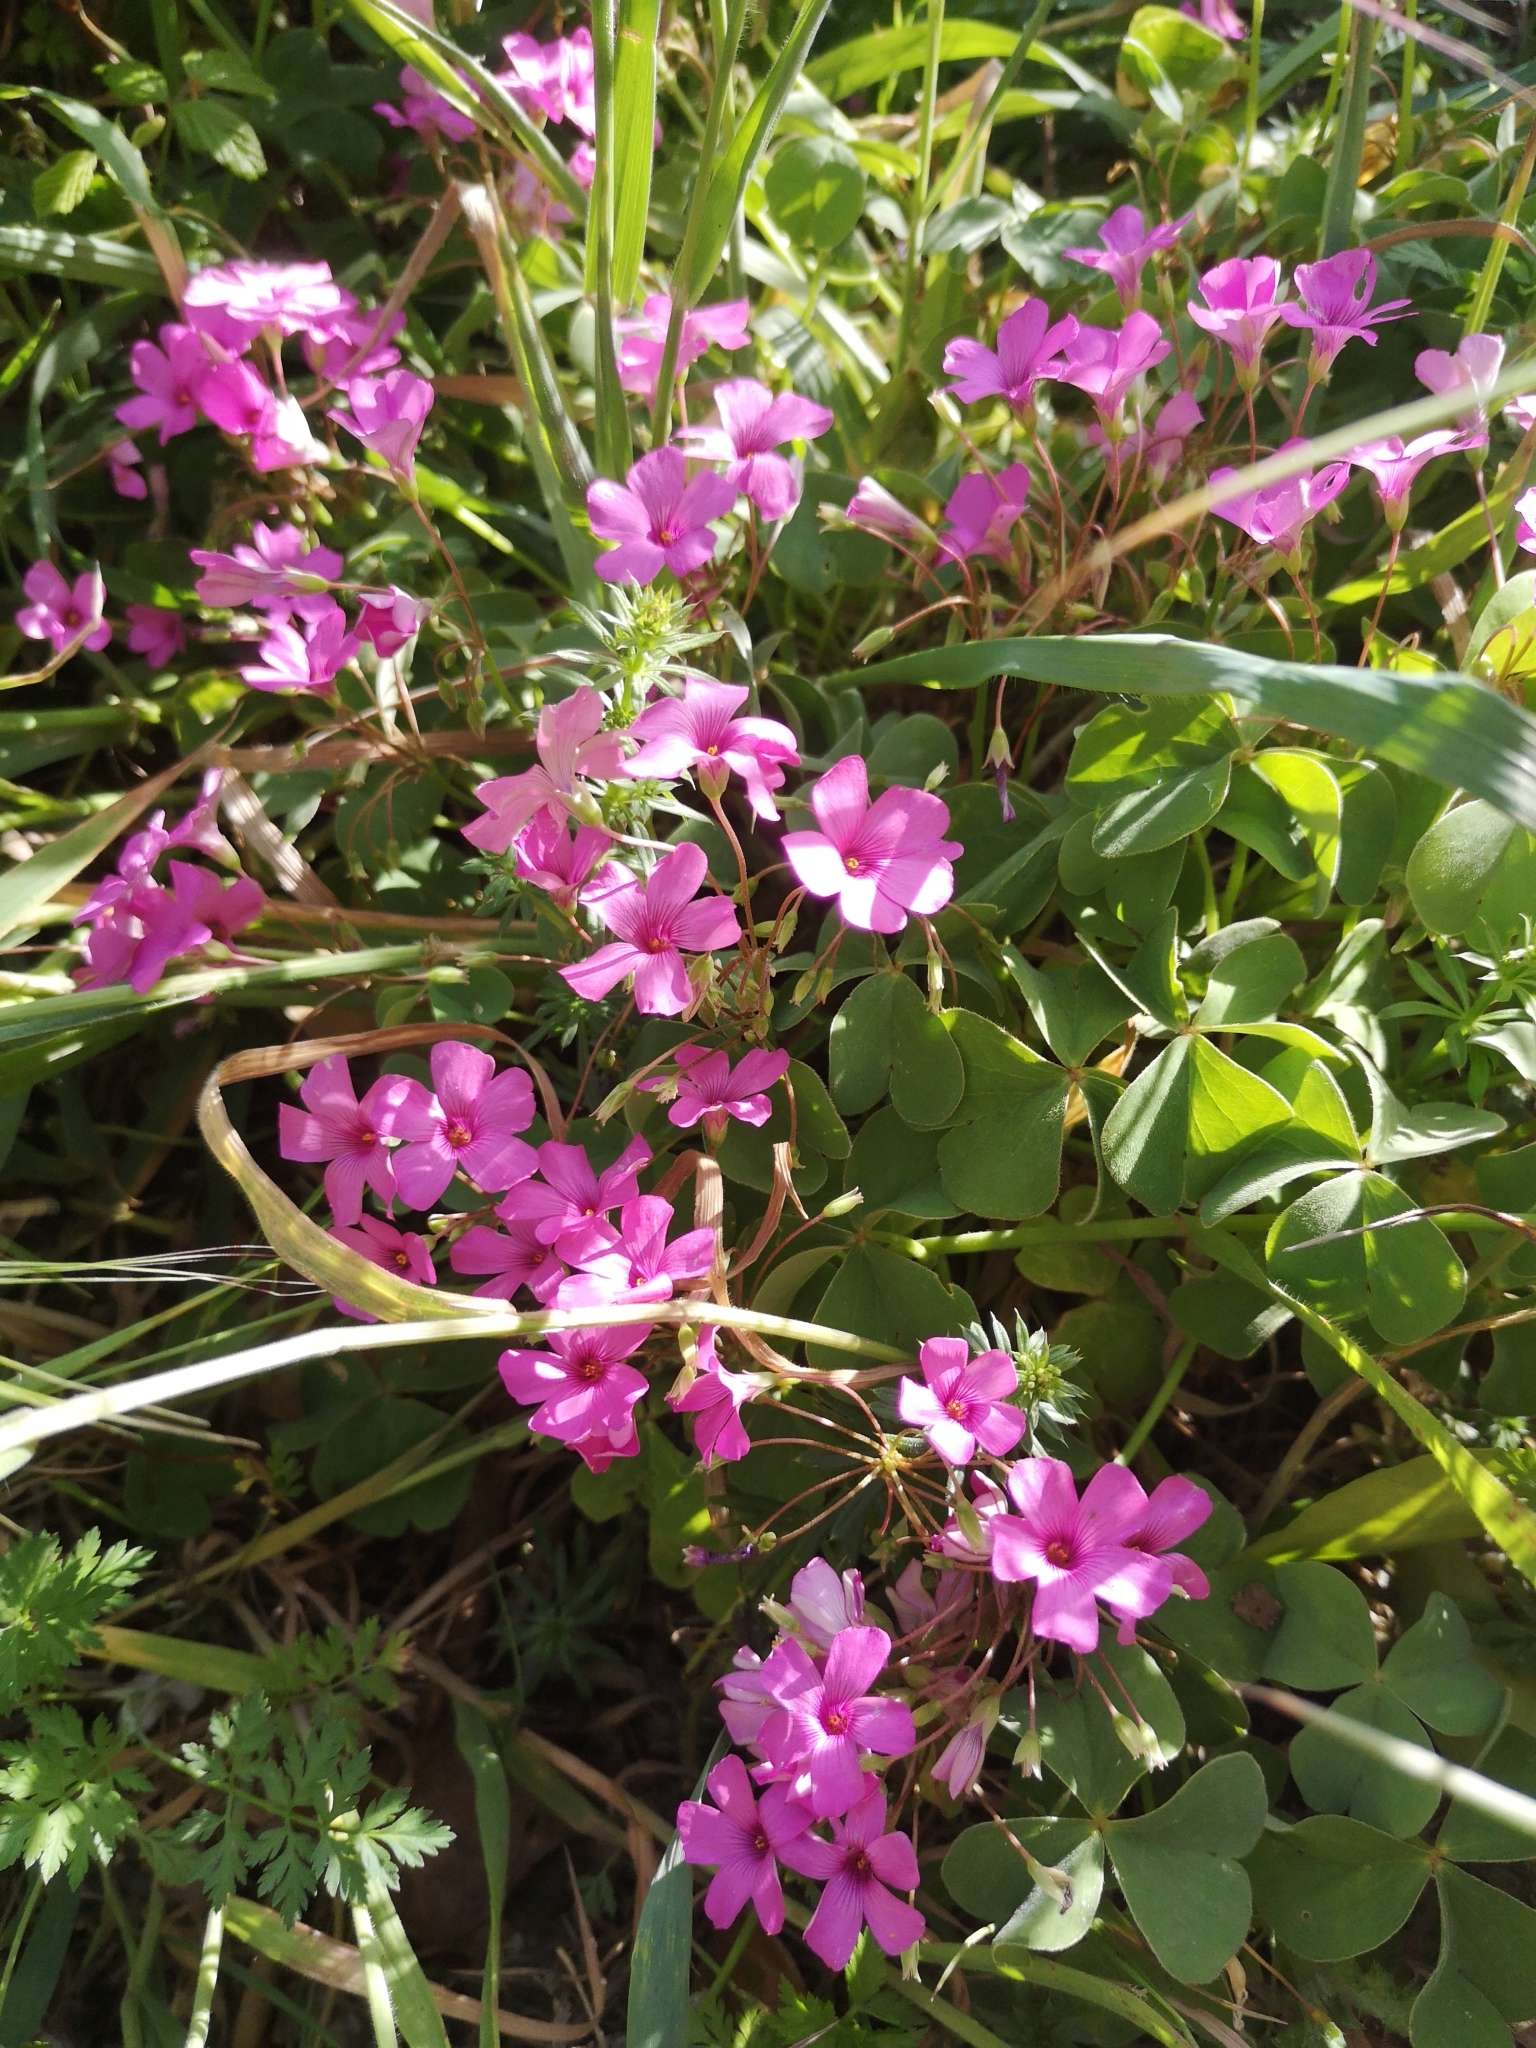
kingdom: Plantae
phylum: Tracheophyta
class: Magnoliopsida
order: Oxalidales
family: Oxalidaceae
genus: Oxalis
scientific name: Oxalis articulata
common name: Pink-sorrel
